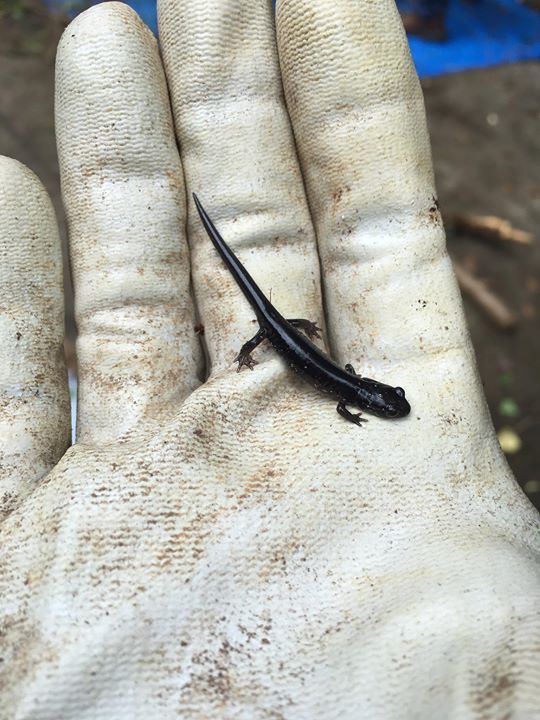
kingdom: Animalia
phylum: Chordata
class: Amphibia
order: Caudata
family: Plethodontidae
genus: Plethodon
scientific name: Plethodon cylindraceus
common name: White-spotted slimy salamander
